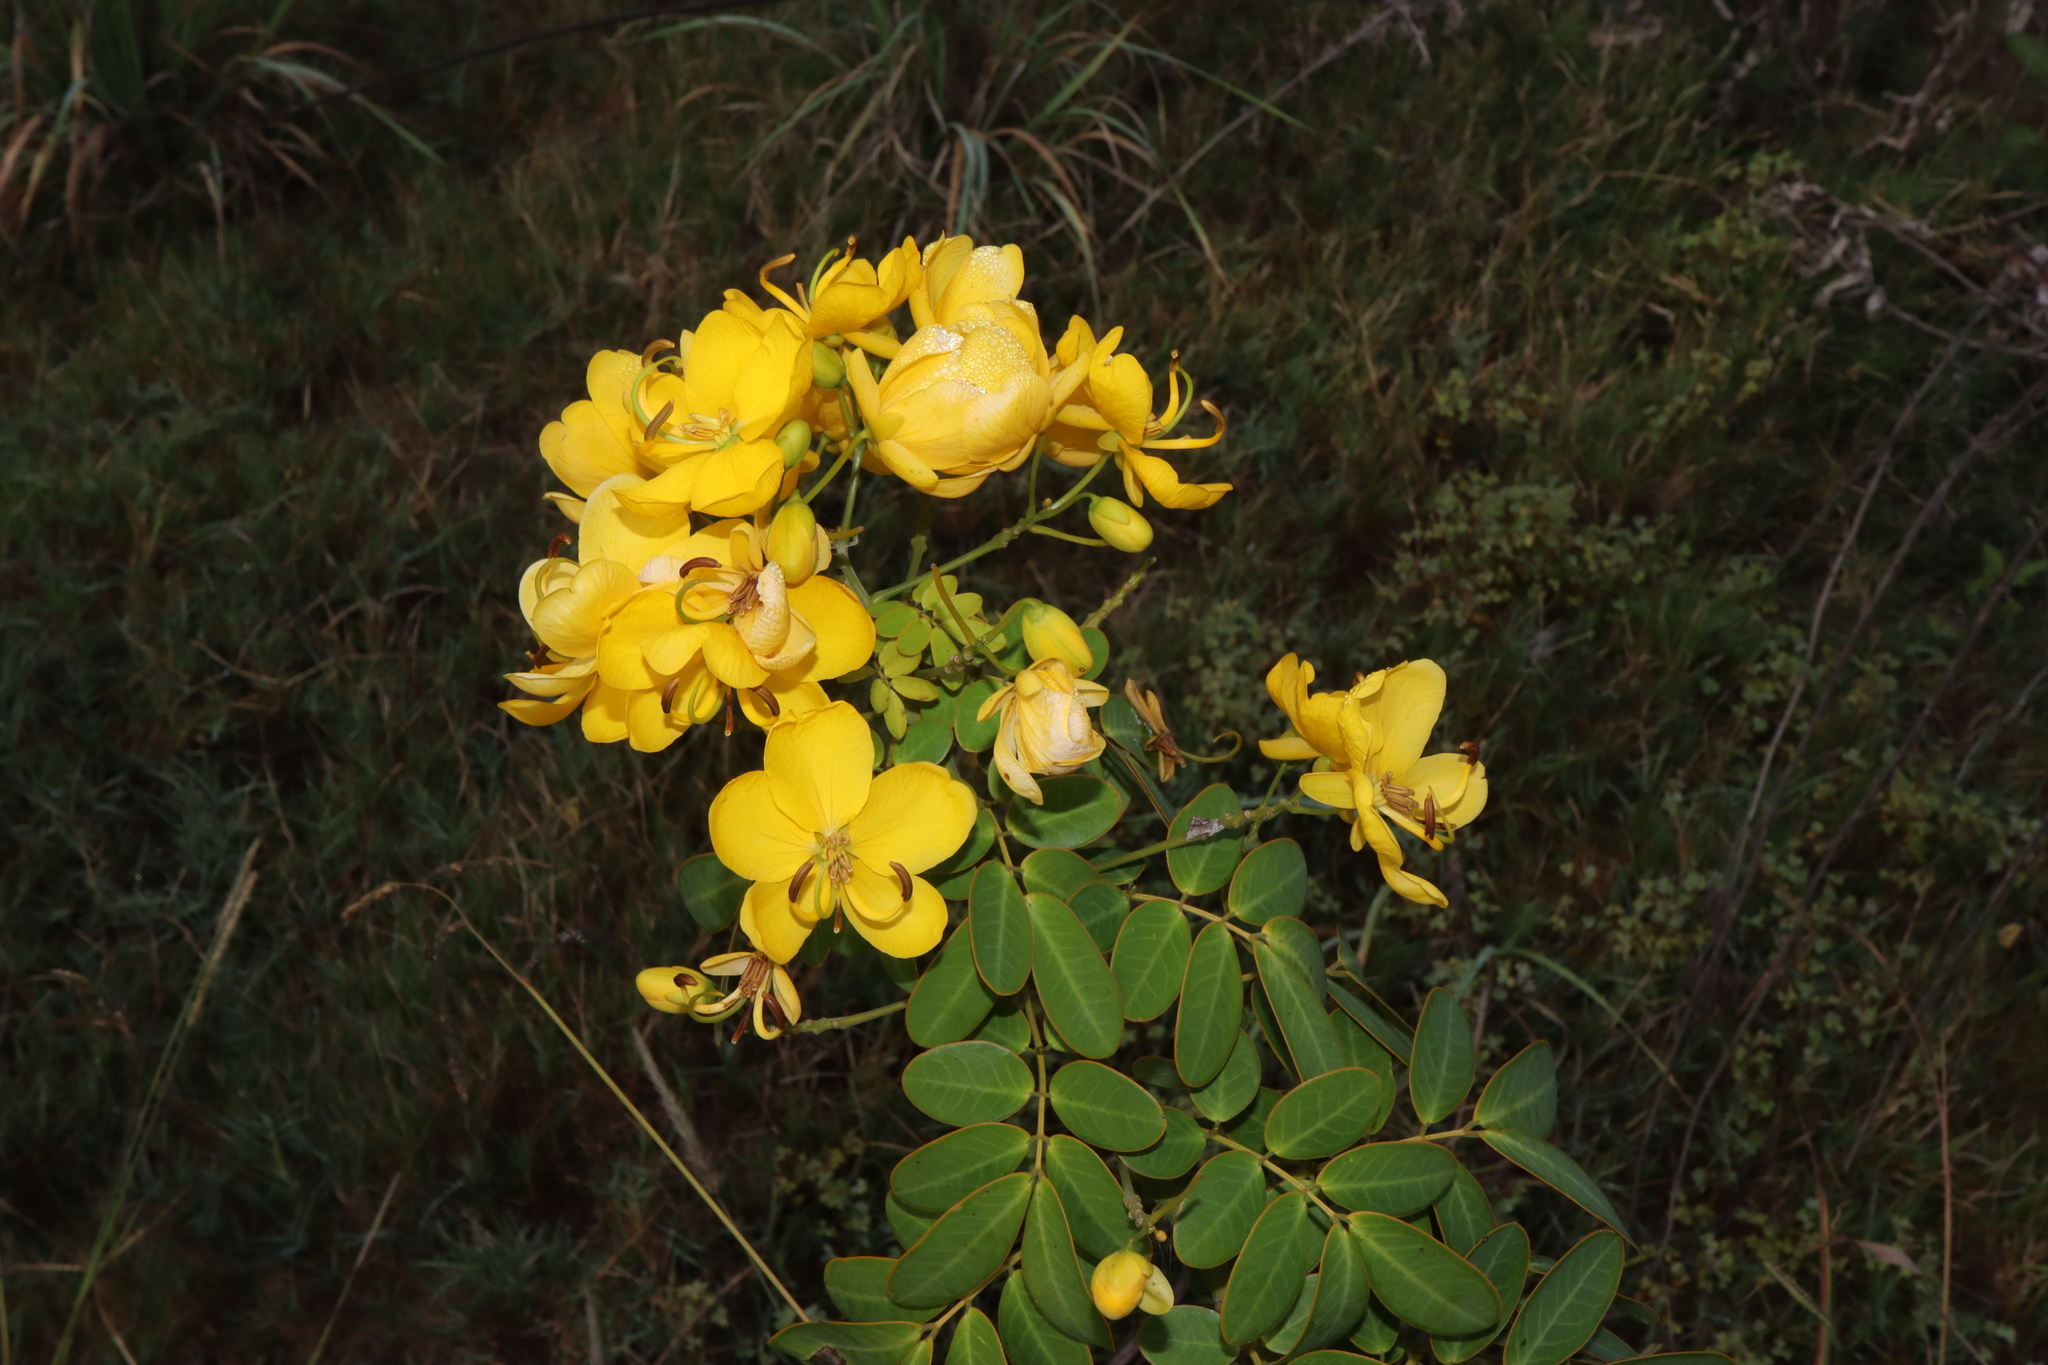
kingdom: Plantae
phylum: Tracheophyta
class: Magnoliopsida
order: Fabales
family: Fabaceae
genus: Senna
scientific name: Senna pendula
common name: Easter cassia
